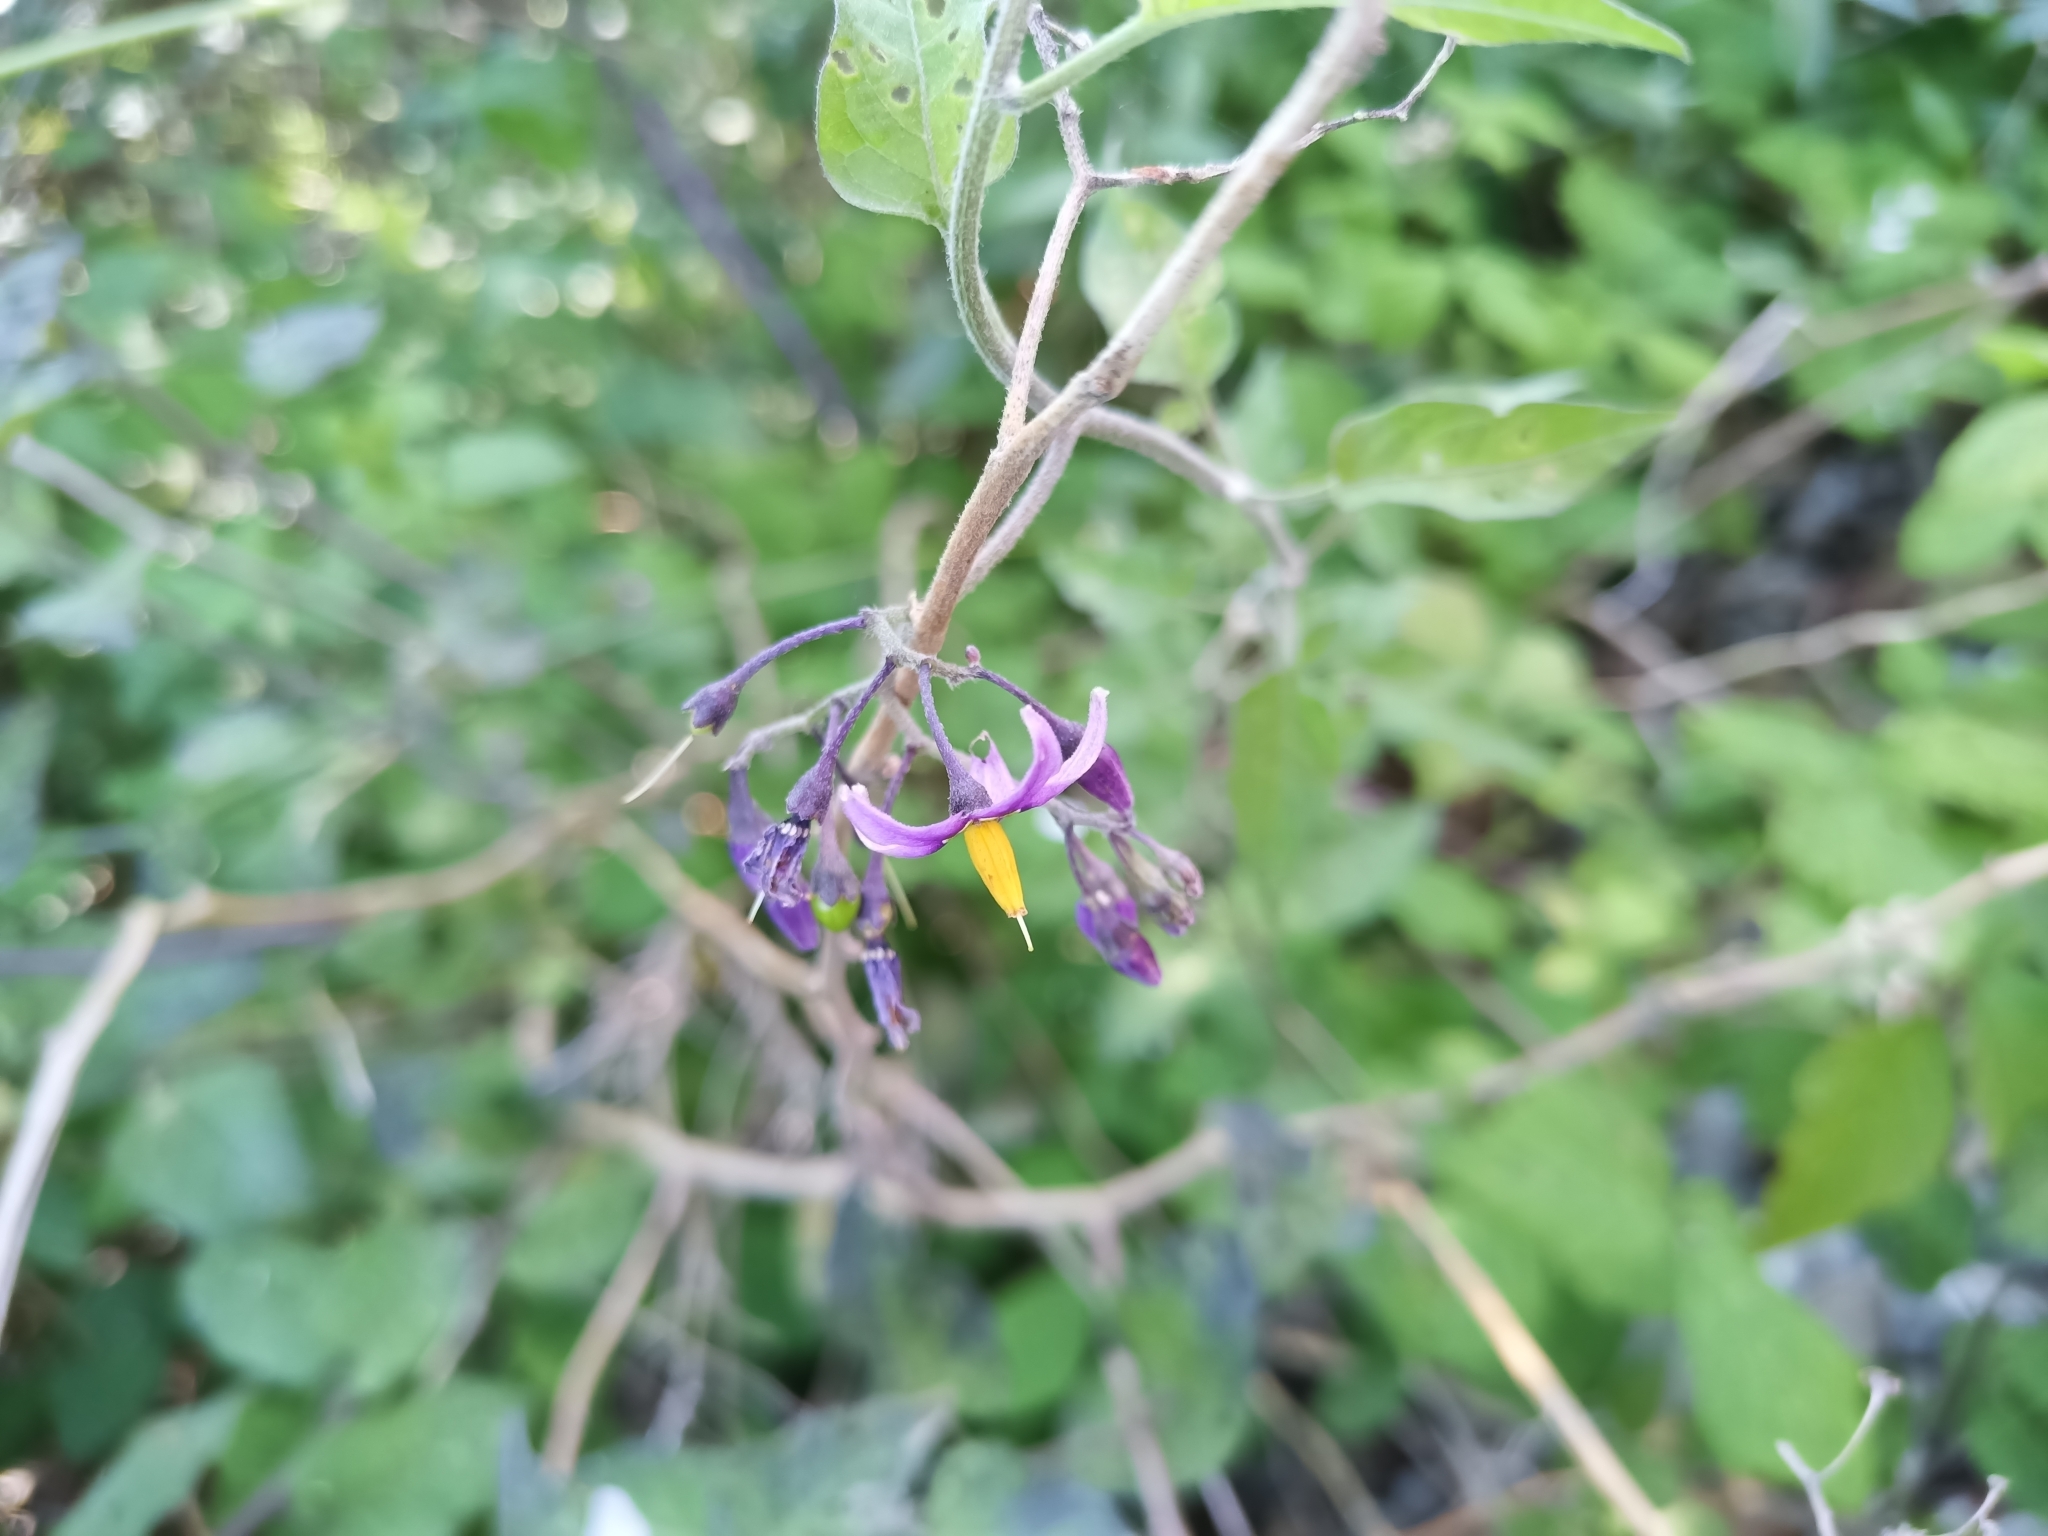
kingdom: Plantae
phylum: Tracheophyta
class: Magnoliopsida
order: Solanales
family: Solanaceae
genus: Solanum
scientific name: Solanum dulcamara
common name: Climbing nightshade
